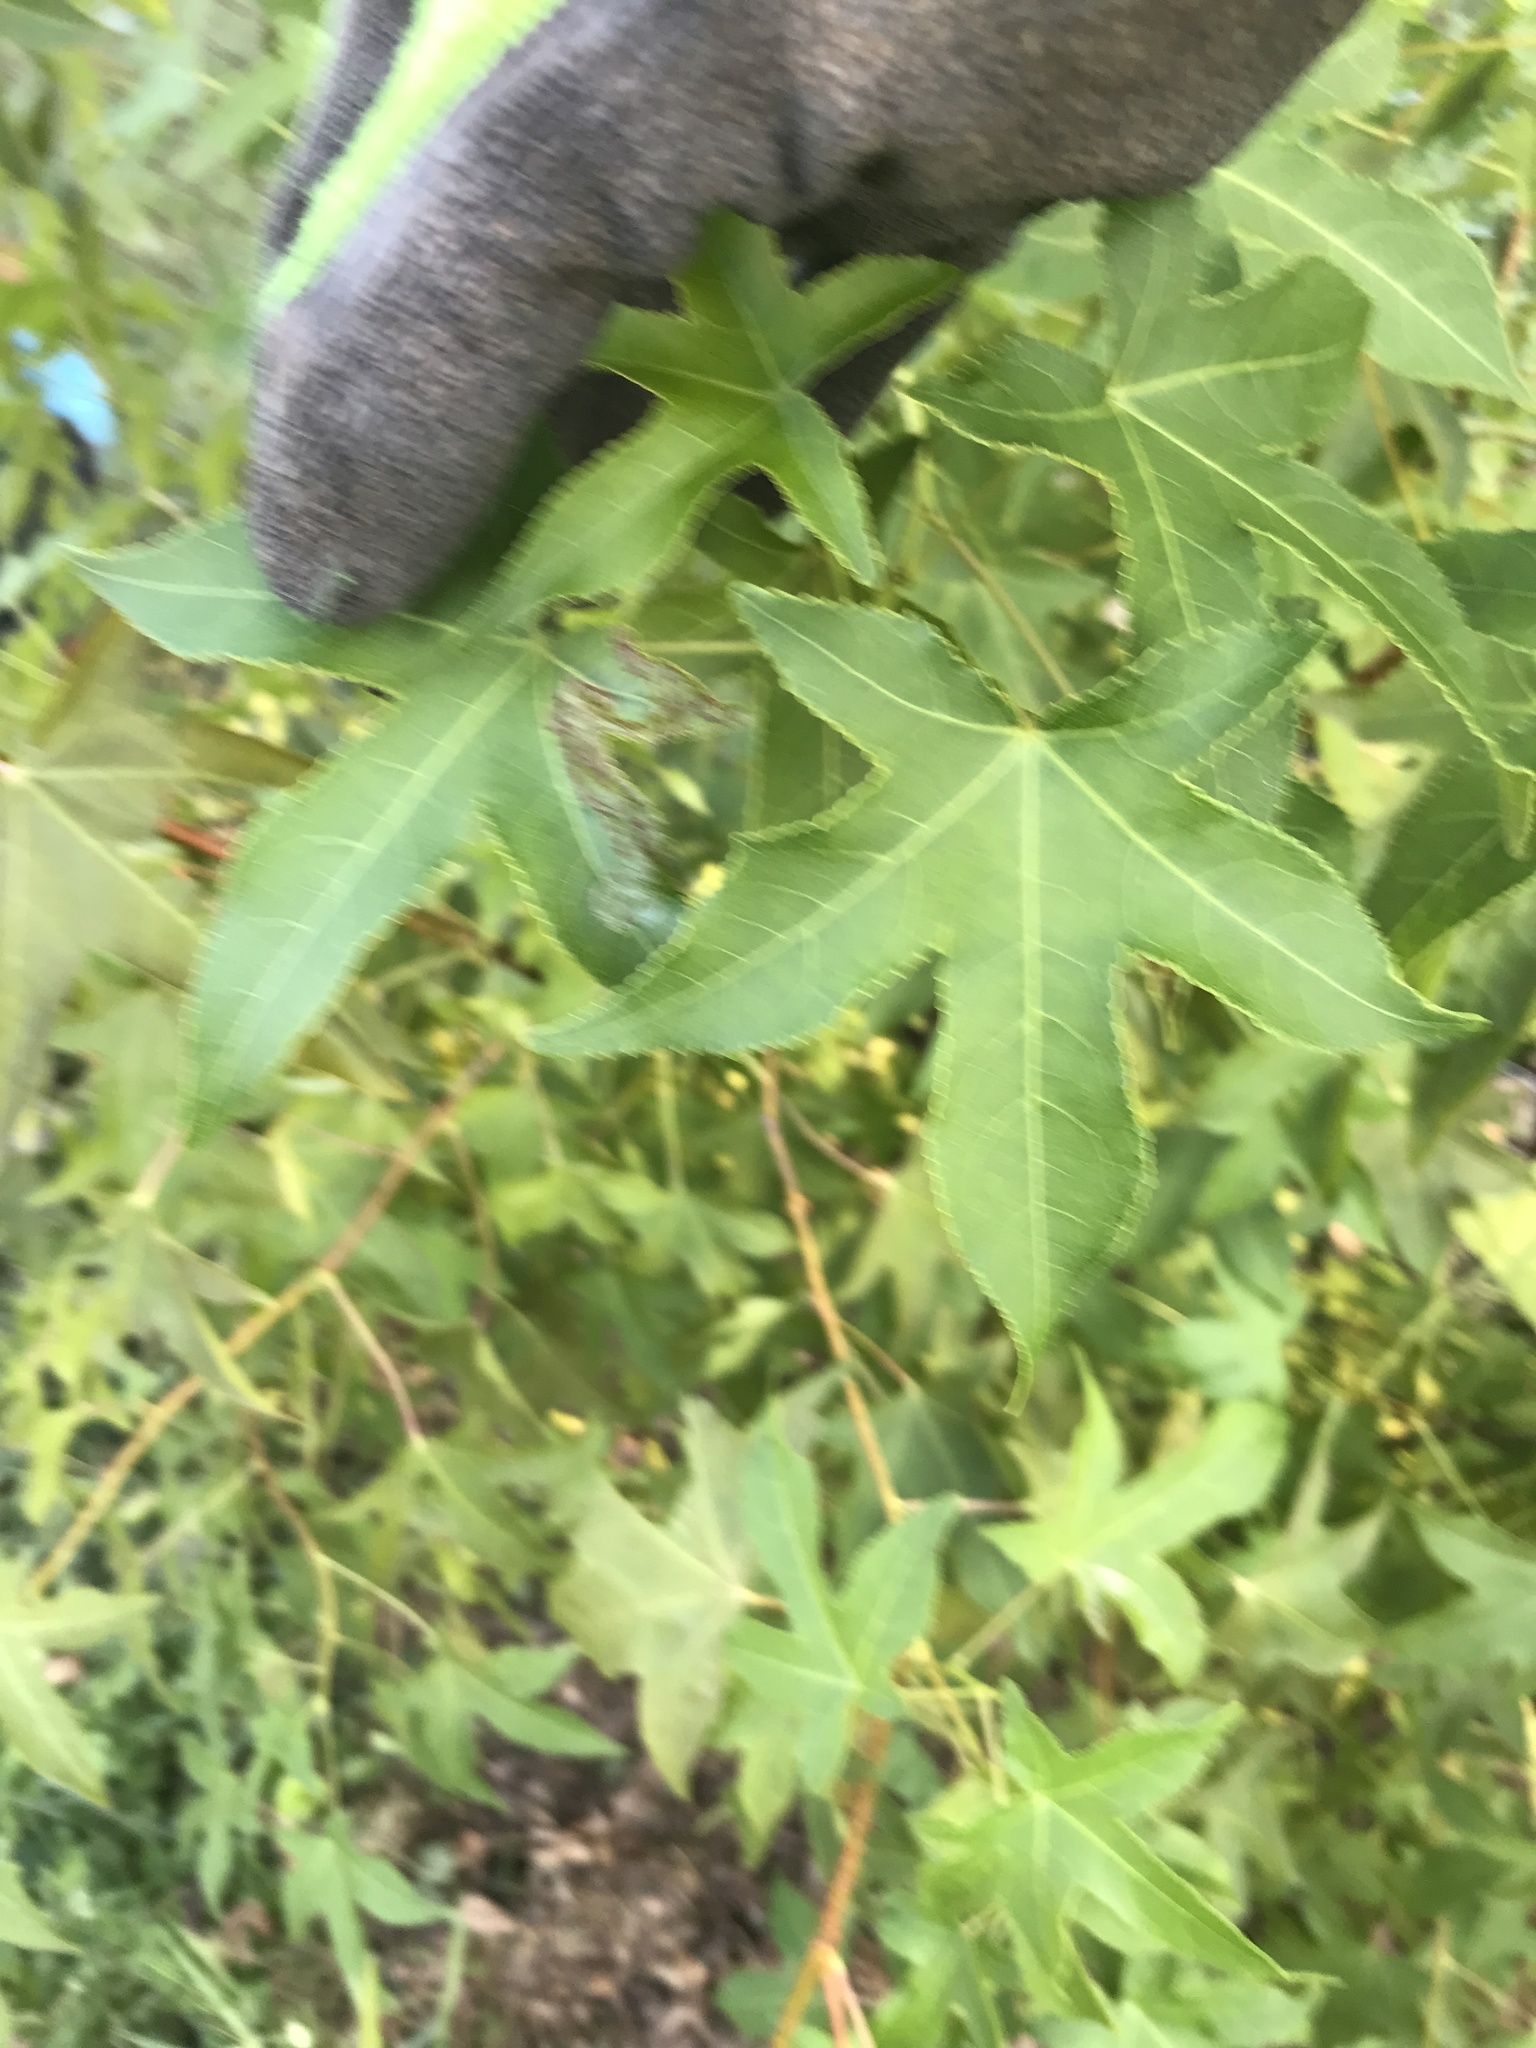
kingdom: Animalia
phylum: Arthropoda
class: Insecta
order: Lepidoptera
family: Gracillariidae
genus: Phyllocnistis
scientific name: Phyllocnistis liquidambarisella
